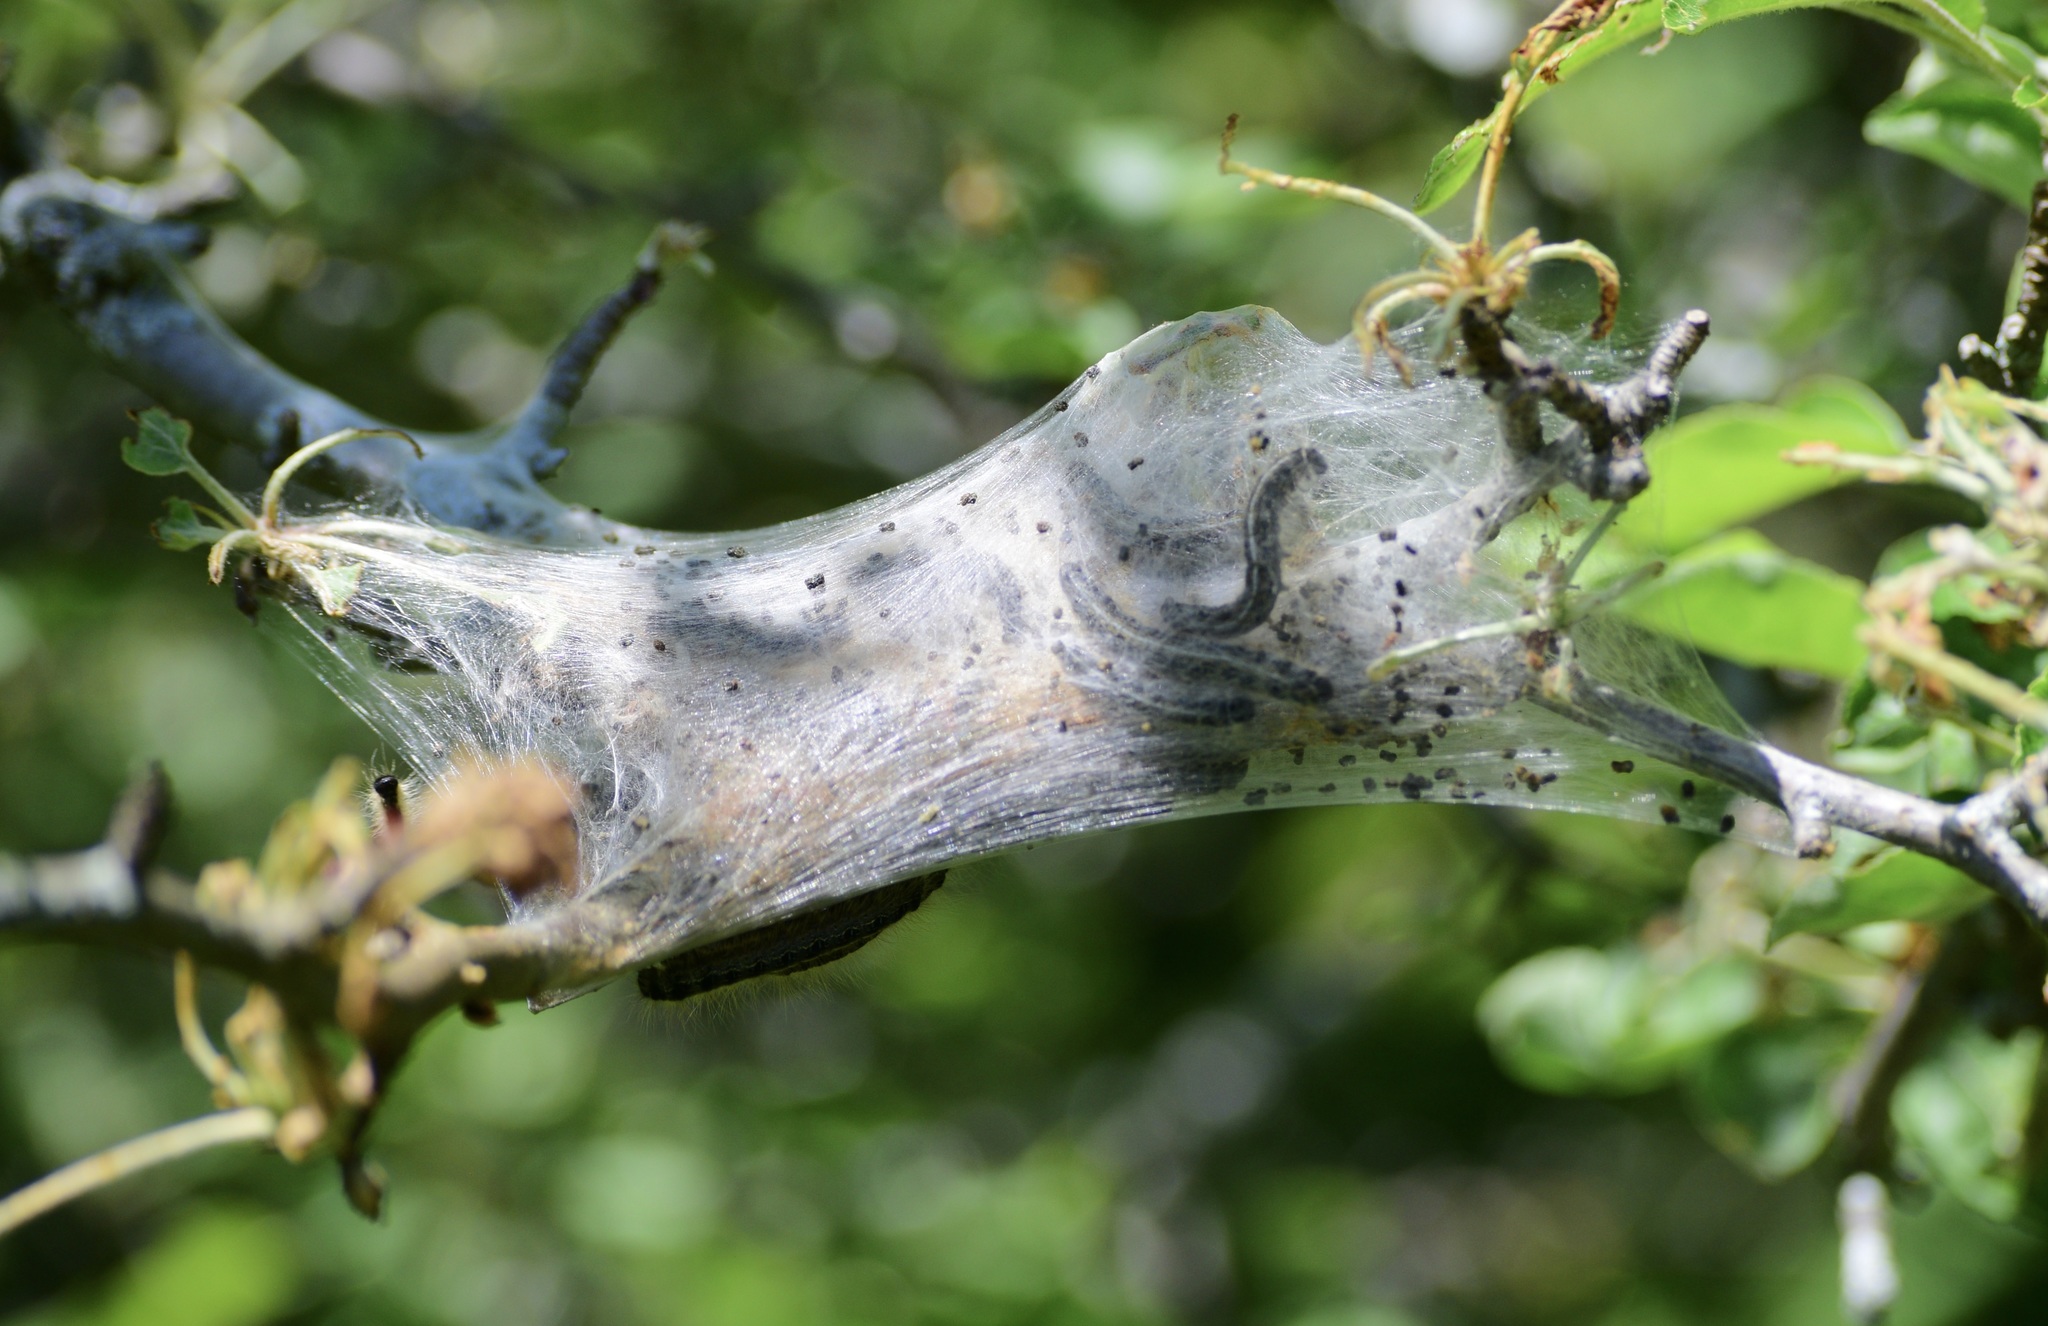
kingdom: Animalia
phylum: Arthropoda
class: Insecta
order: Lepidoptera
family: Lasiocampidae
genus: Malacosoma
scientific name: Malacosoma americana
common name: Eastern tent caterpillar moth
